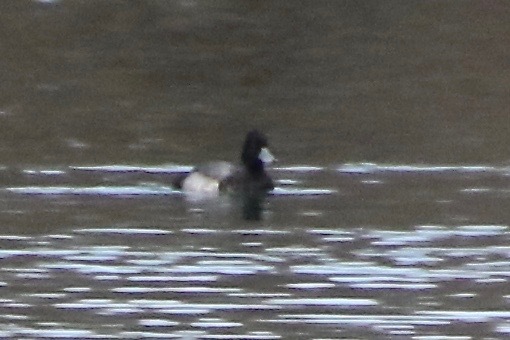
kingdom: Animalia
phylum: Chordata
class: Aves
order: Anseriformes
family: Anatidae
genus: Aythya
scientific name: Aythya affinis
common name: Lesser scaup
